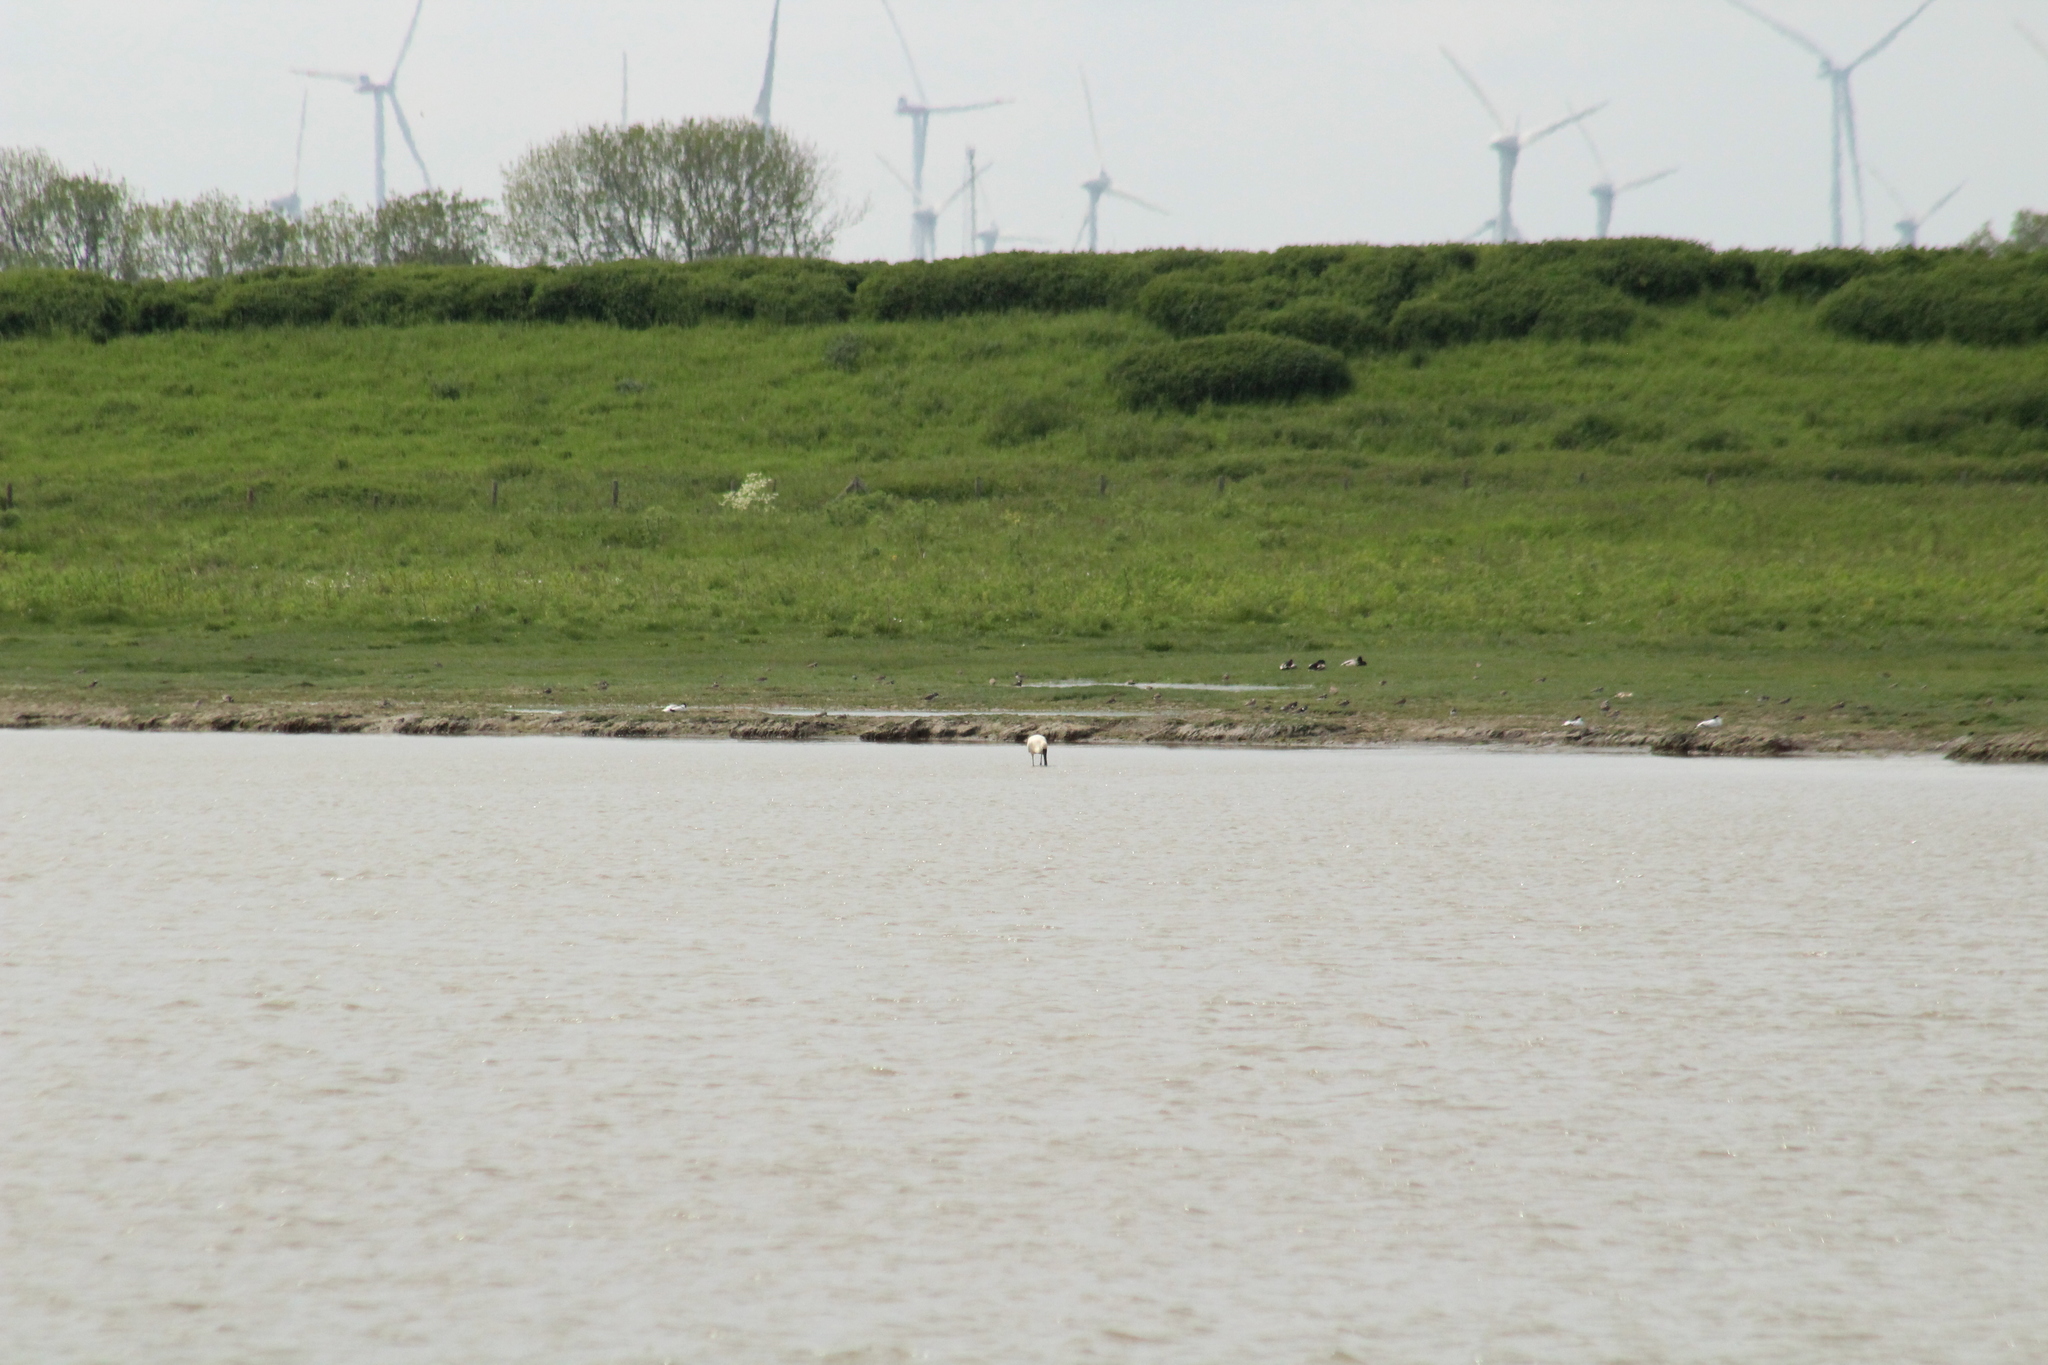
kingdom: Animalia
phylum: Chordata
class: Aves
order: Pelecaniformes
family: Threskiornithidae
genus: Platalea
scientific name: Platalea leucorodia
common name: Eurasian spoonbill
